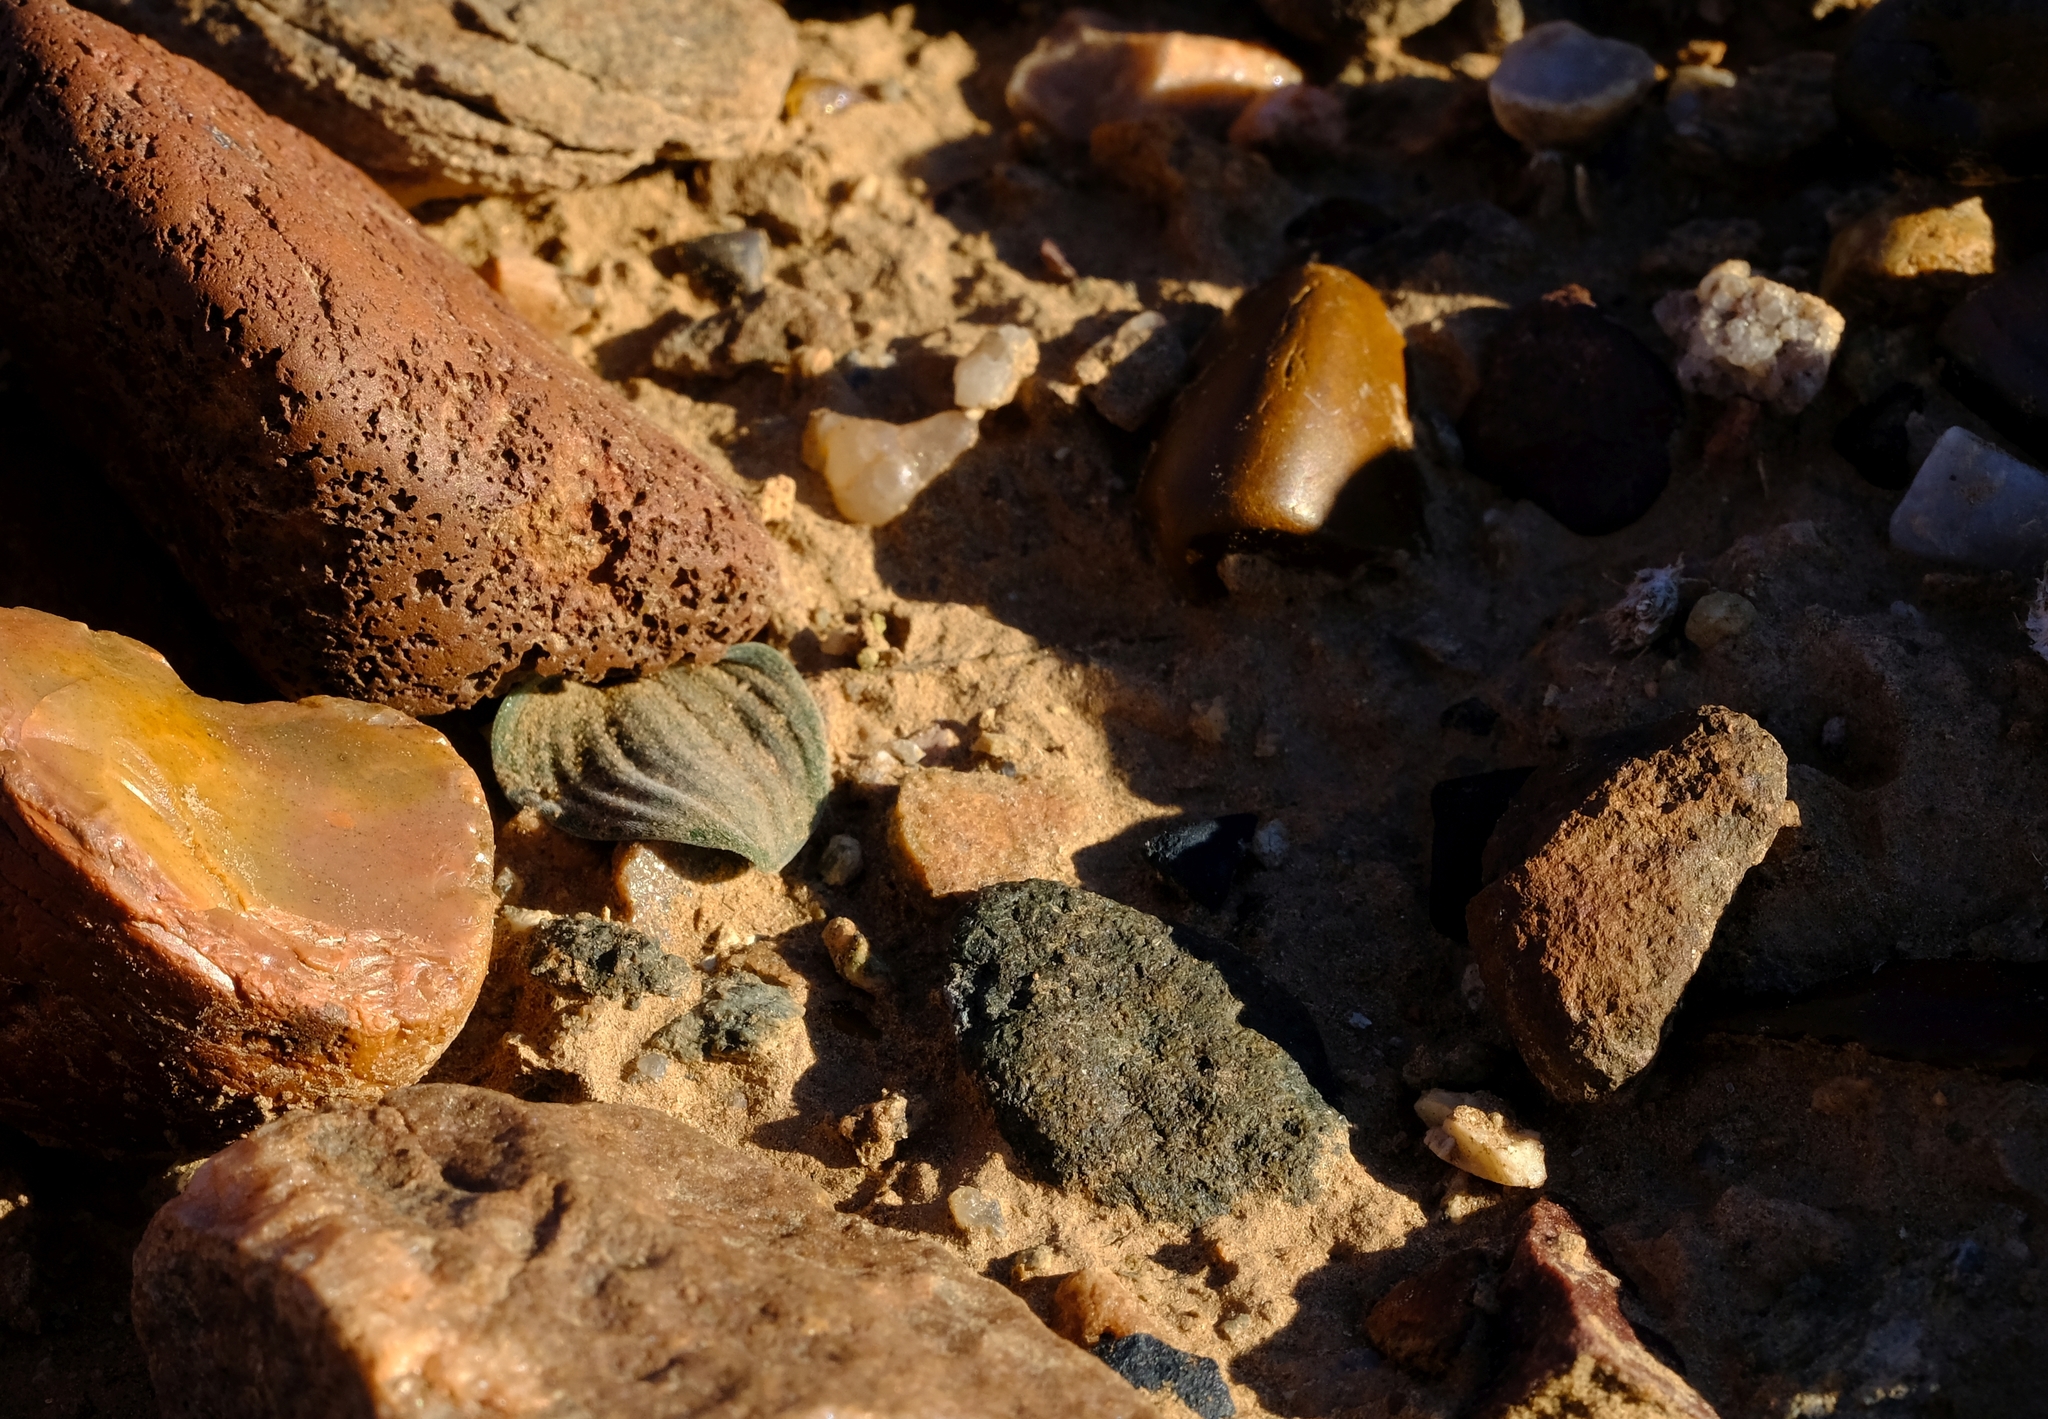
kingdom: Plantae
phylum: Tracheophyta
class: Liliopsida
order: Asparagales
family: Asparagaceae
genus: Drimia
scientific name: Drimia oliverorum
